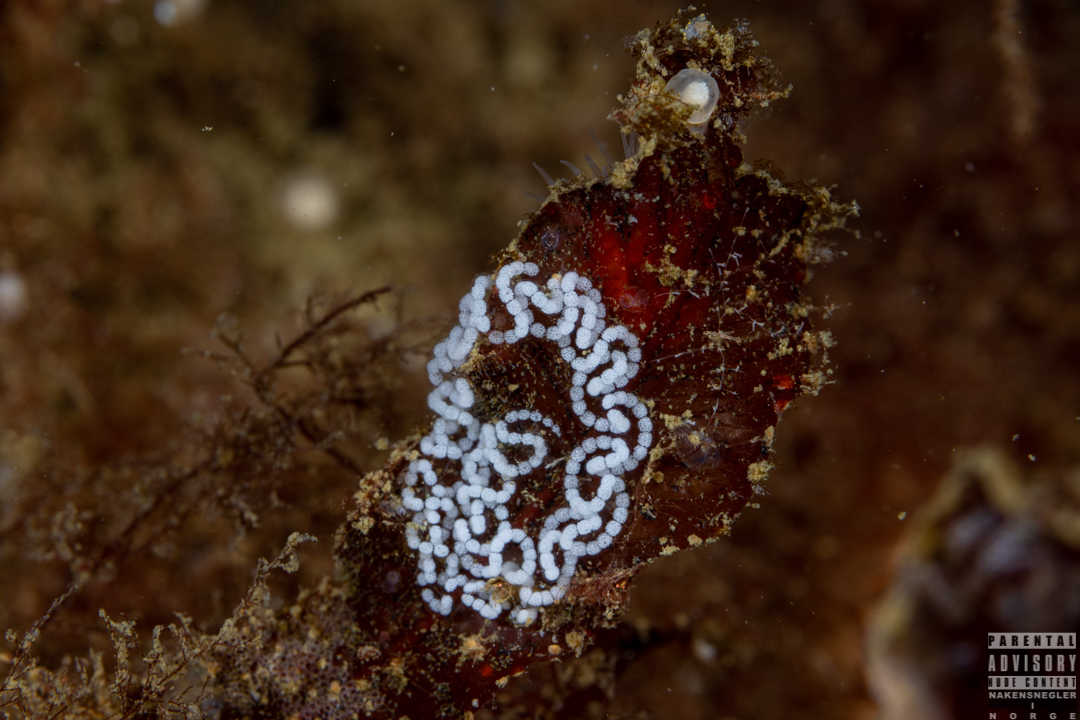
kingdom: Animalia
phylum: Mollusca
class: Gastropoda
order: Nudibranchia
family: Janolidae
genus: Antiopella
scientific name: Antiopella cristata
